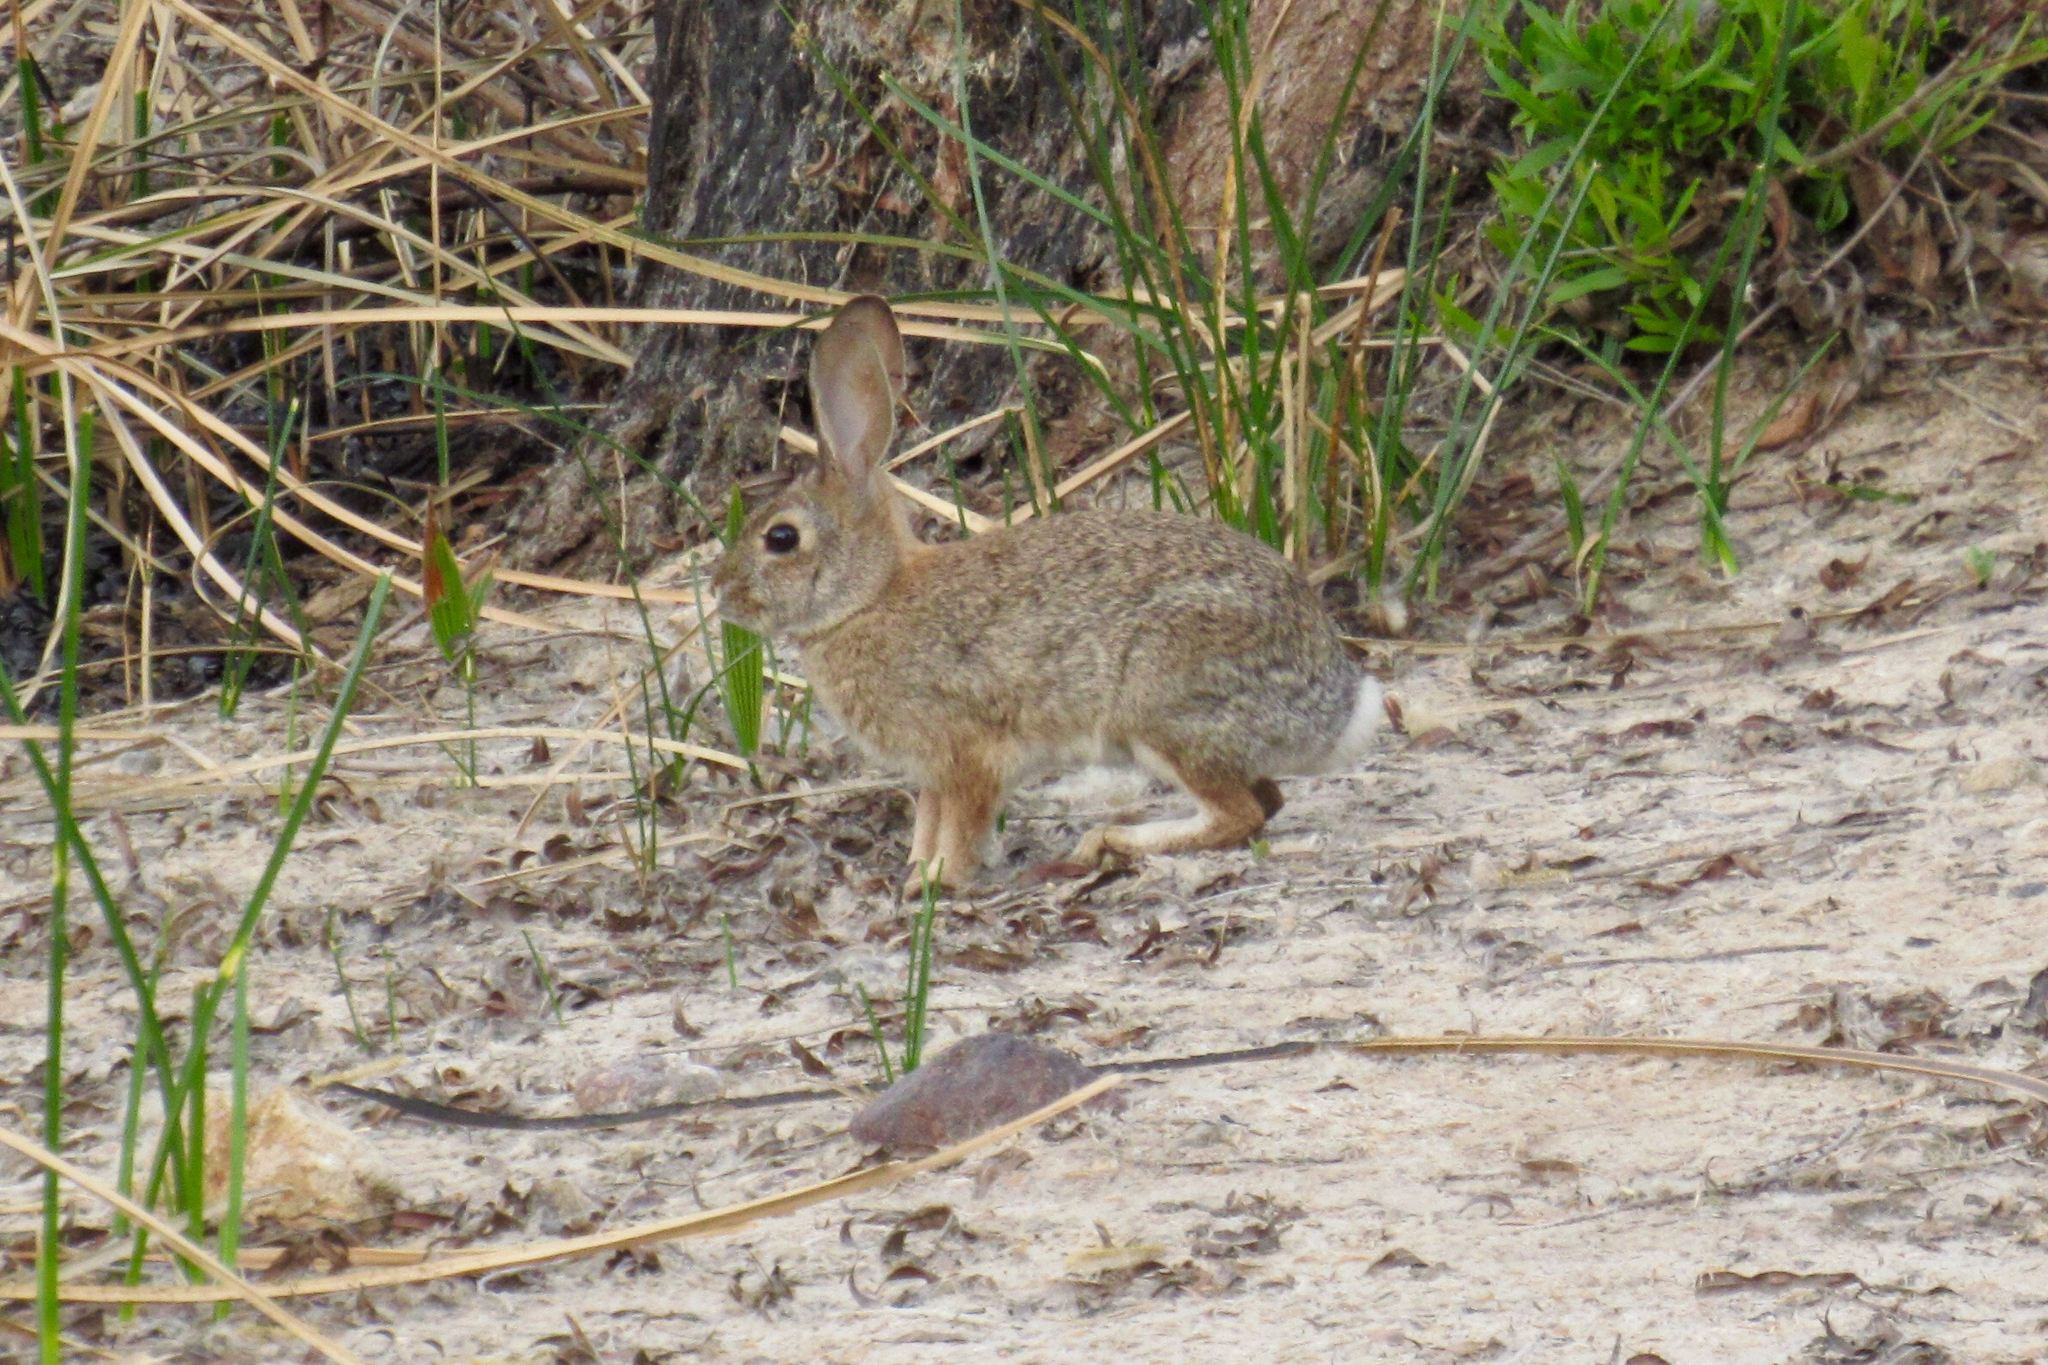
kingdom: Animalia
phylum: Chordata
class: Mammalia
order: Lagomorpha
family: Leporidae
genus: Sylvilagus
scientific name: Sylvilagus audubonii
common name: Desert cottontail
